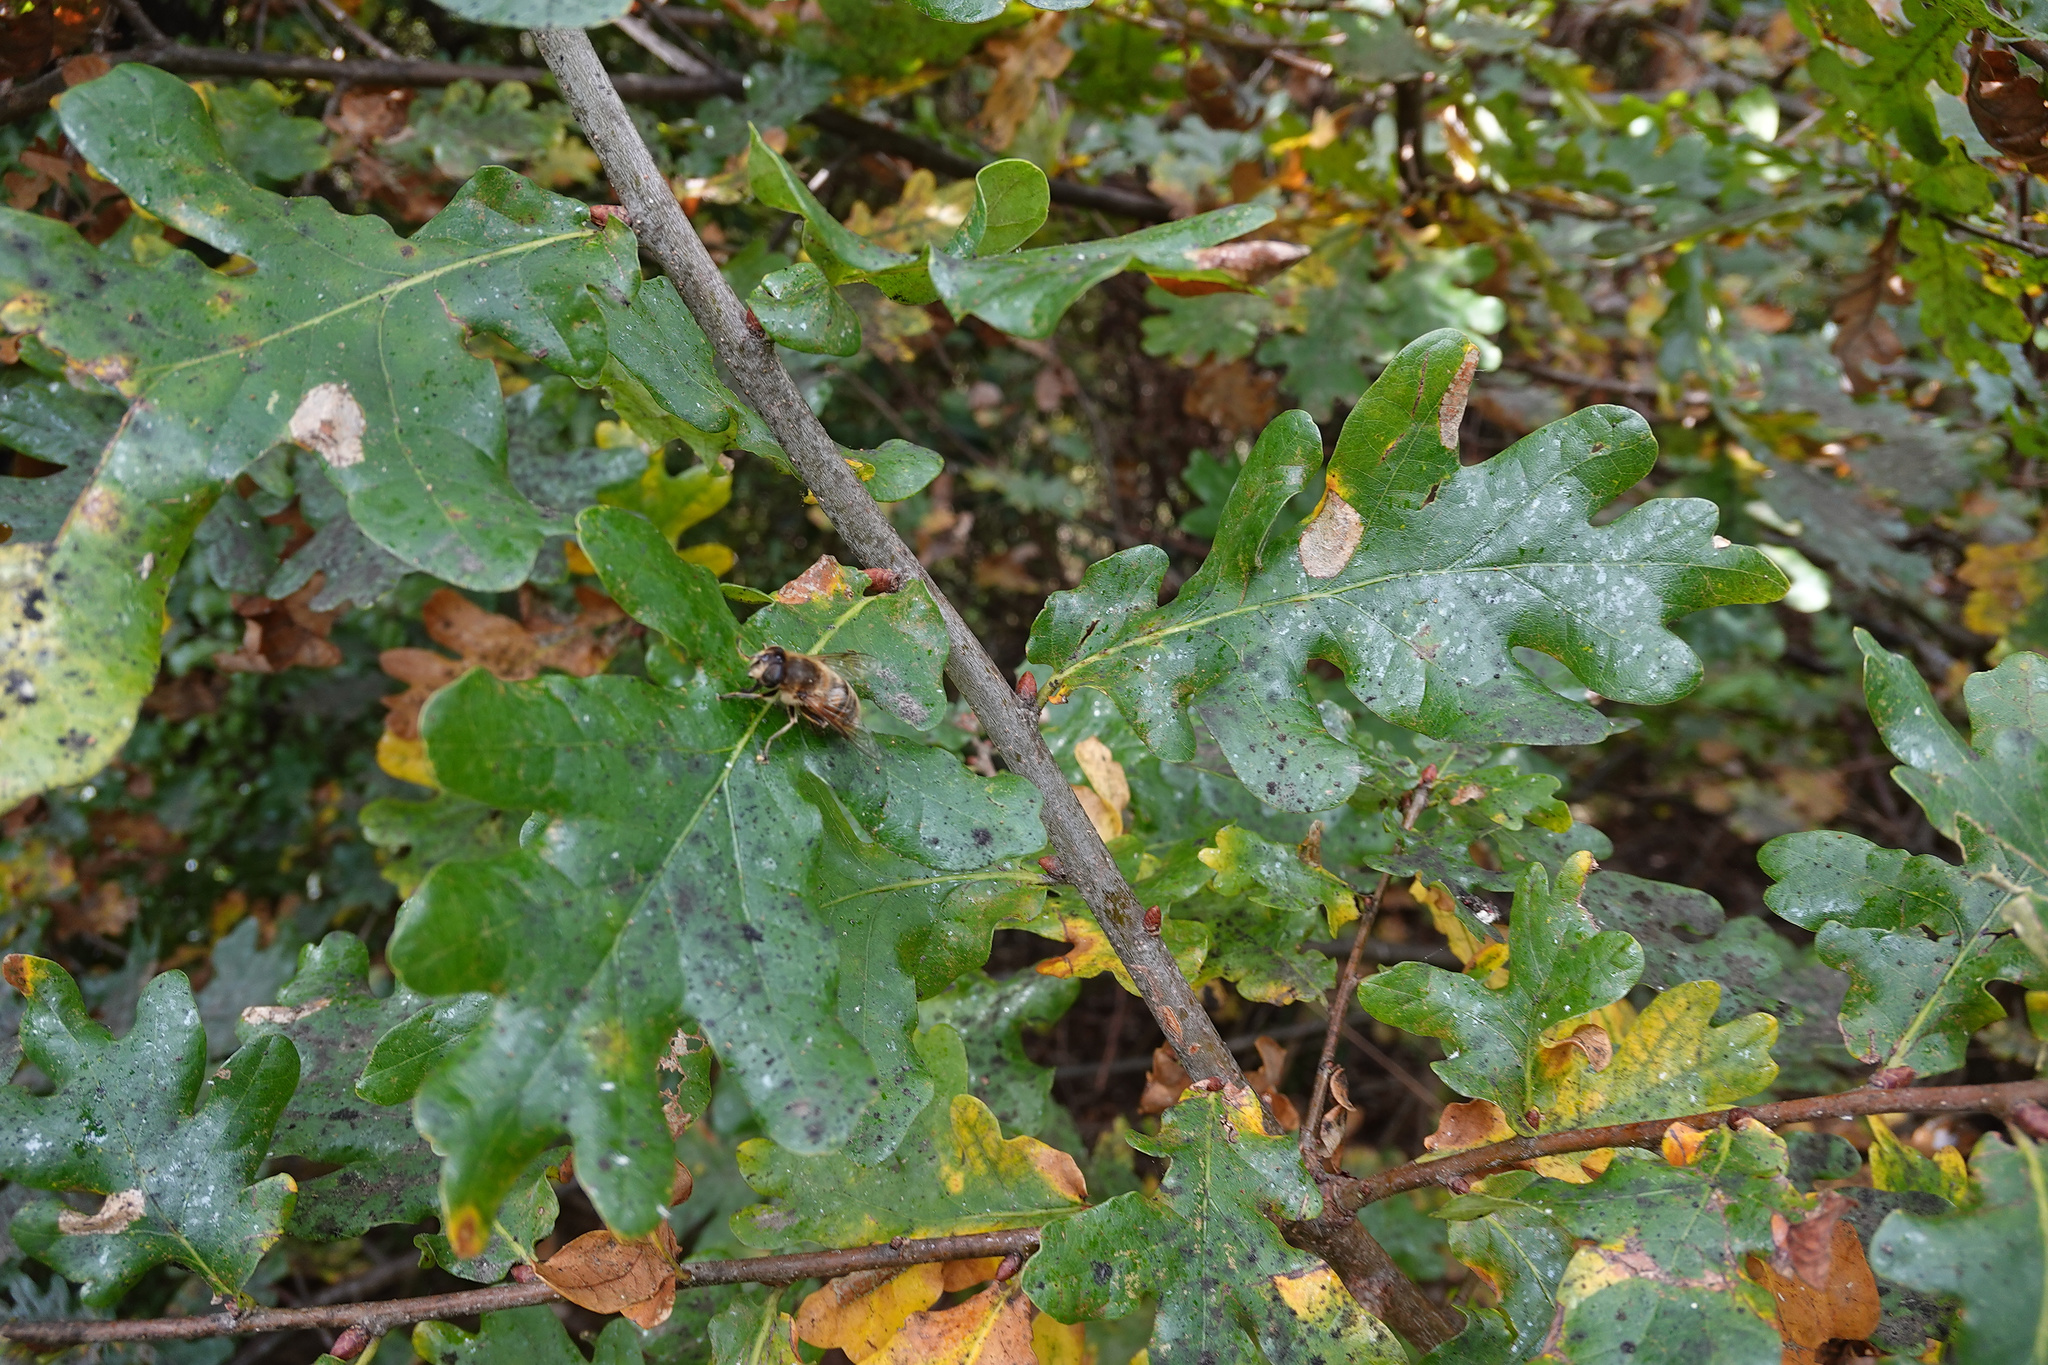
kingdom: Animalia
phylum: Arthropoda
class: Insecta
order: Diptera
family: Syrphidae
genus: Eristalis
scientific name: Eristalis tenax
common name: Drone fly
